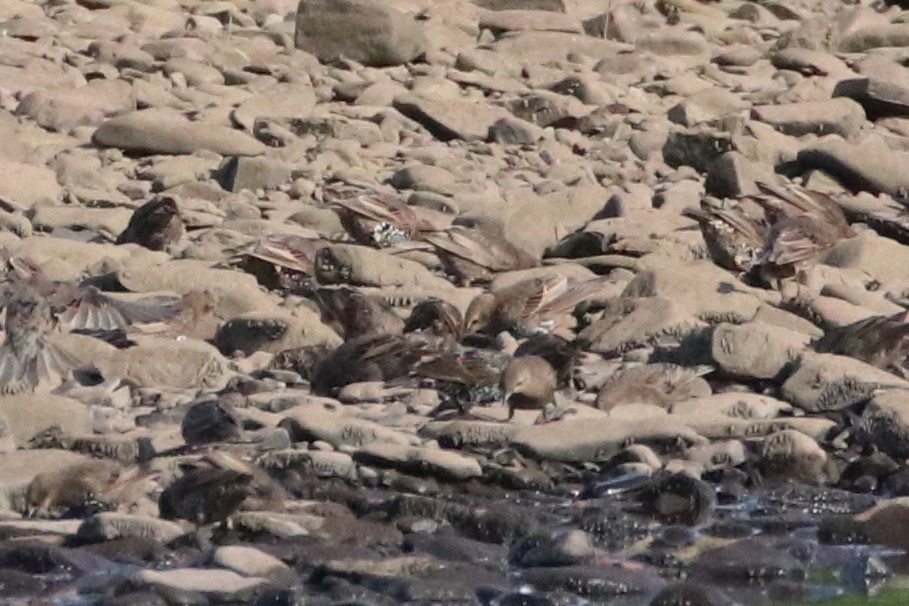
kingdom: Animalia
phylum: Chordata
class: Aves
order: Passeriformes
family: Sturnidae
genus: Sturnus
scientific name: Sturnus vulgaris
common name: Common starling
